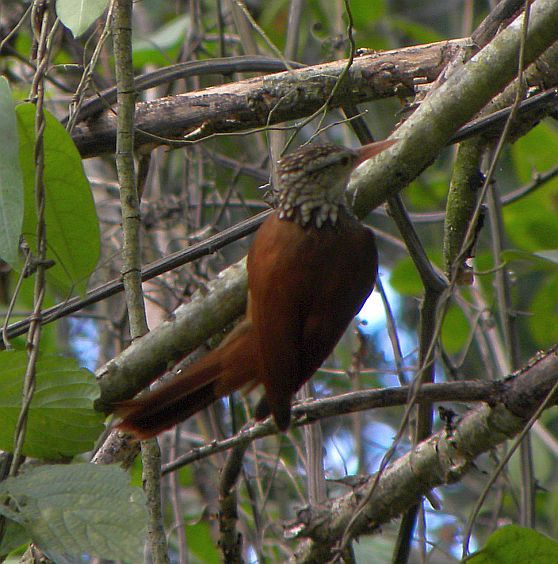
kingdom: Animalia
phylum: Chordata
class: Aves
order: Passeriformes
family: Furnariidae
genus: Xiphorhynchus
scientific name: Xiphorhynchus picus
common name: Straight-billed woodcreeper
